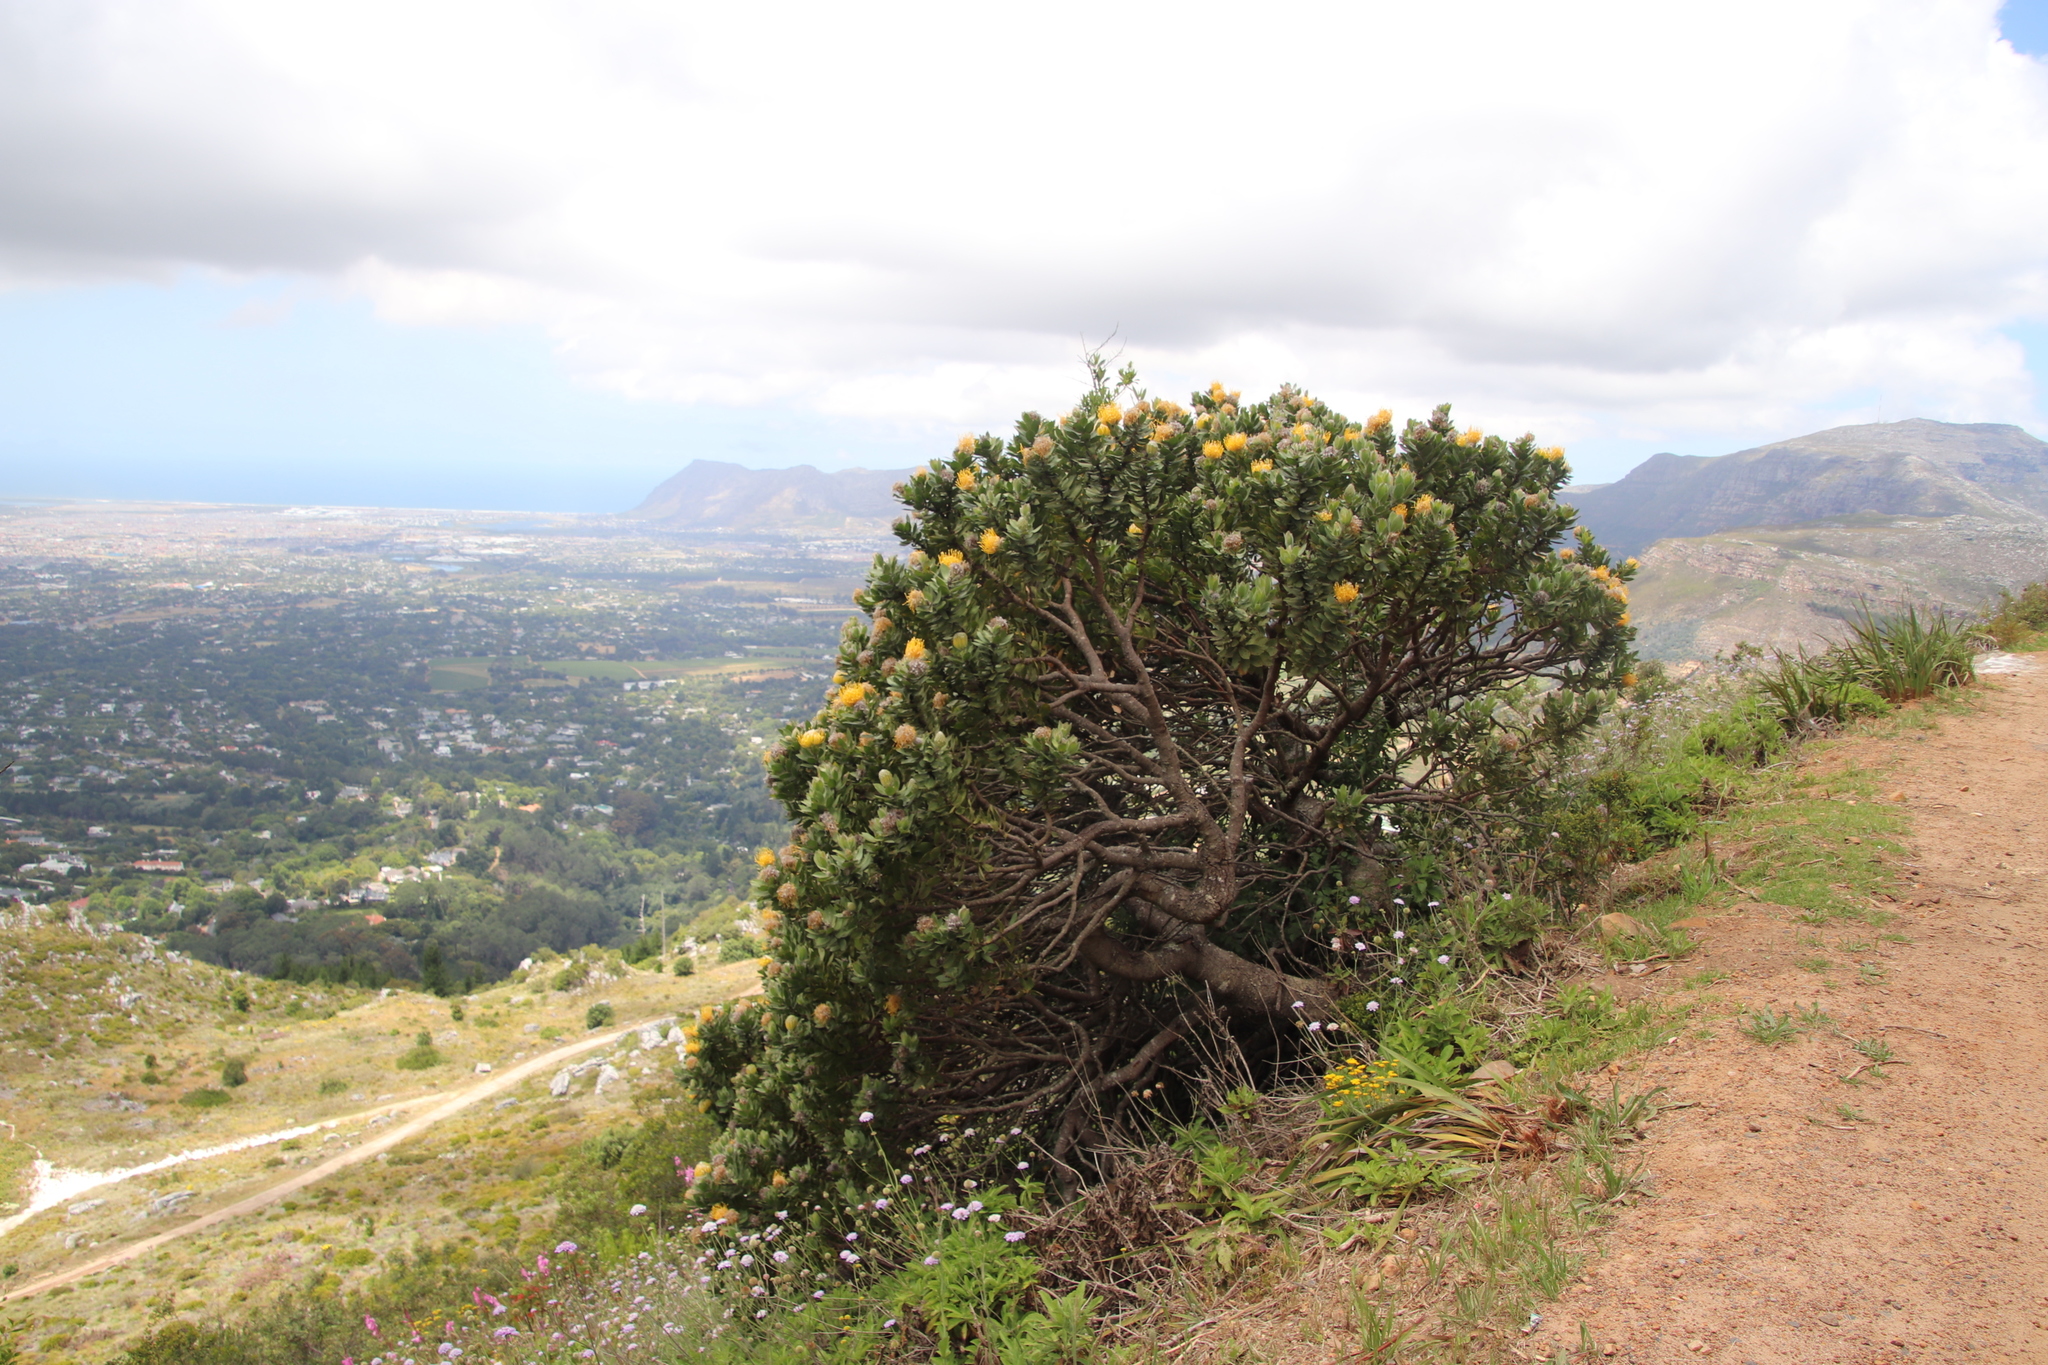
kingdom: Plantae
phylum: Tracheophyta
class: Magnoliopsida
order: Proteales
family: Proteaceae
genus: Leucospermum
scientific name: Leucospermum conocarpodendron
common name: Tree pincushion
